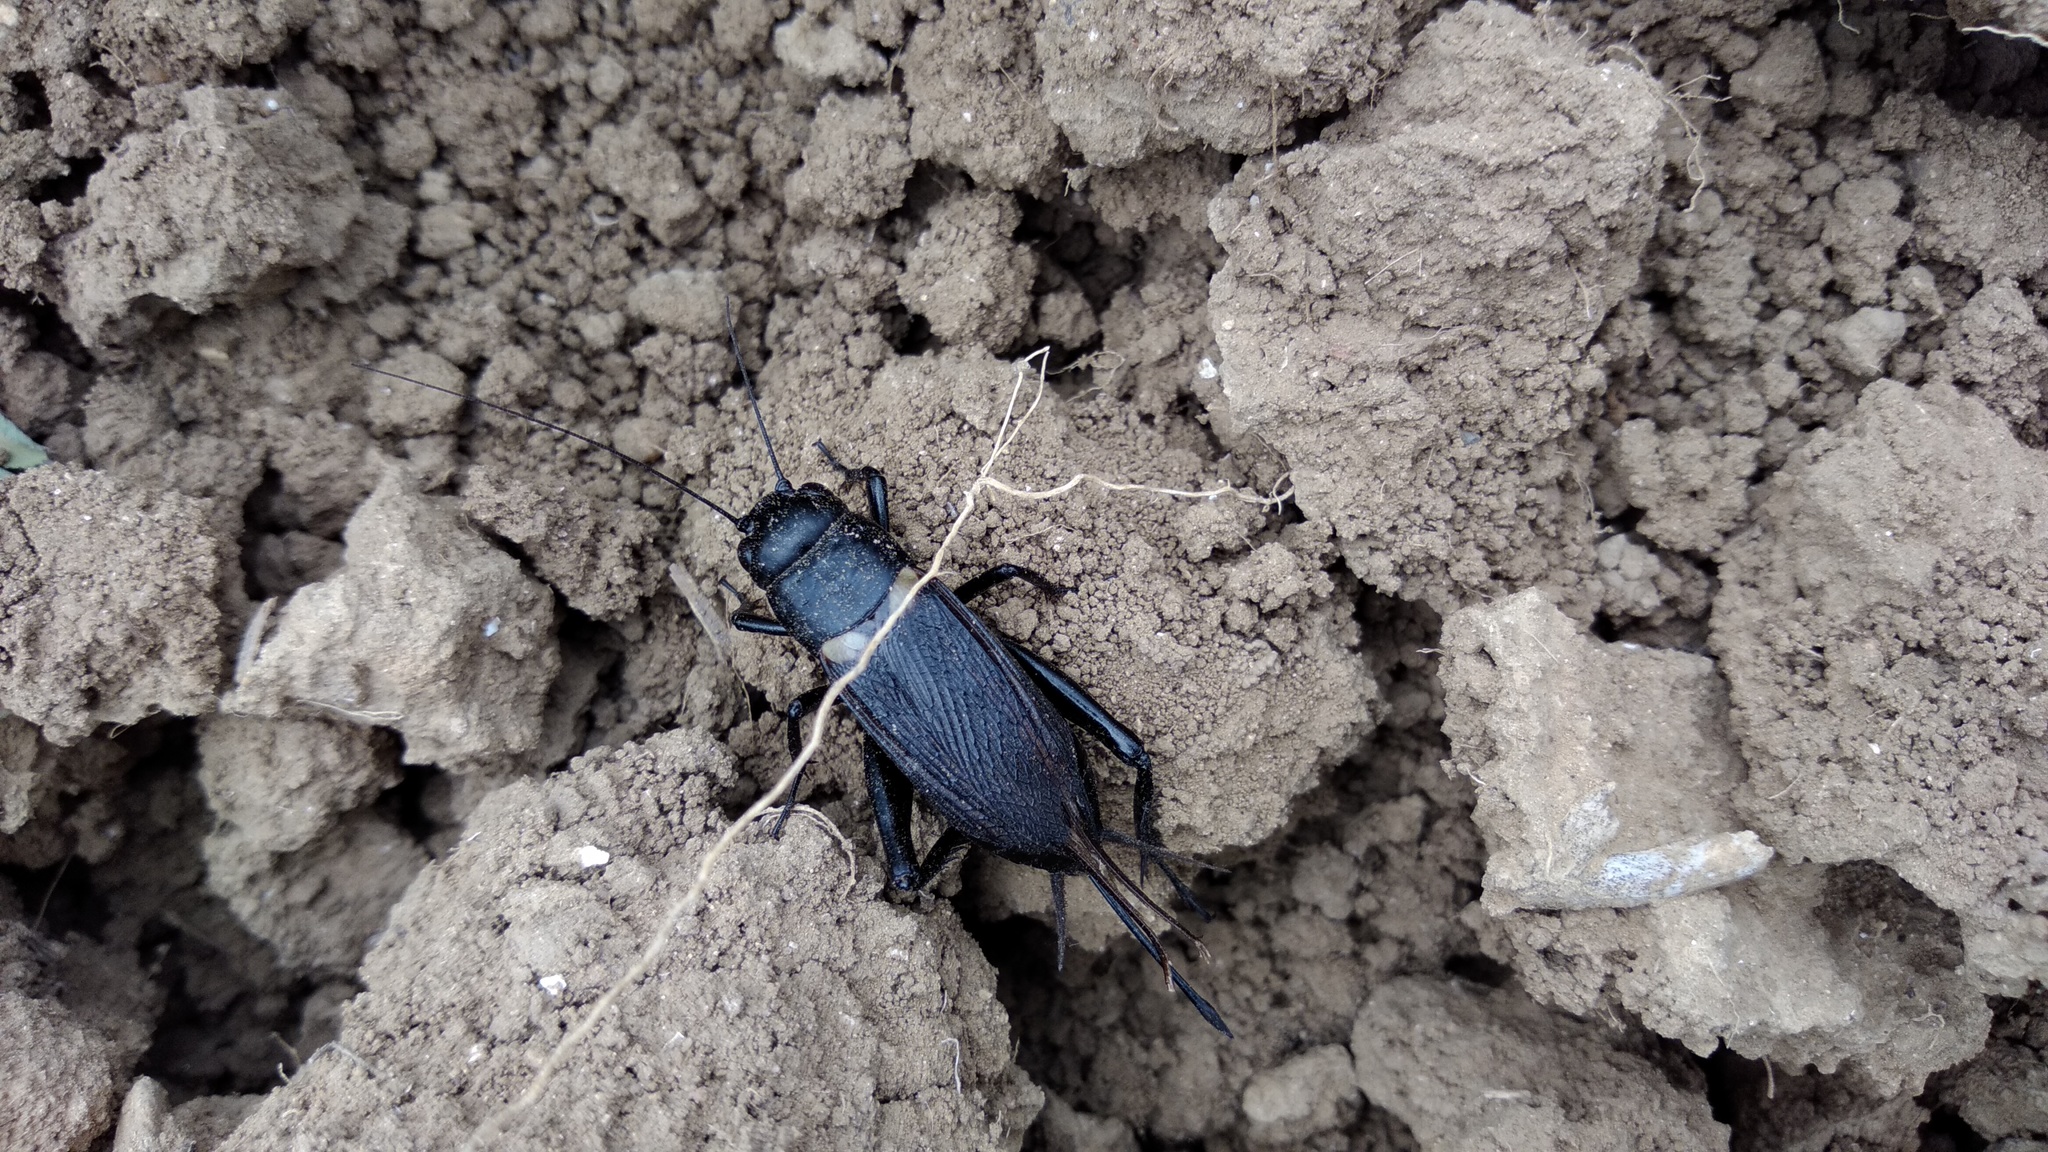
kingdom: Animalia
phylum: Arthropoda
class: Insecta
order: Orthoptera
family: Gryllidae
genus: Gryllus
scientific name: Gryllus bimaculatus
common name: Two-spotted cricket
